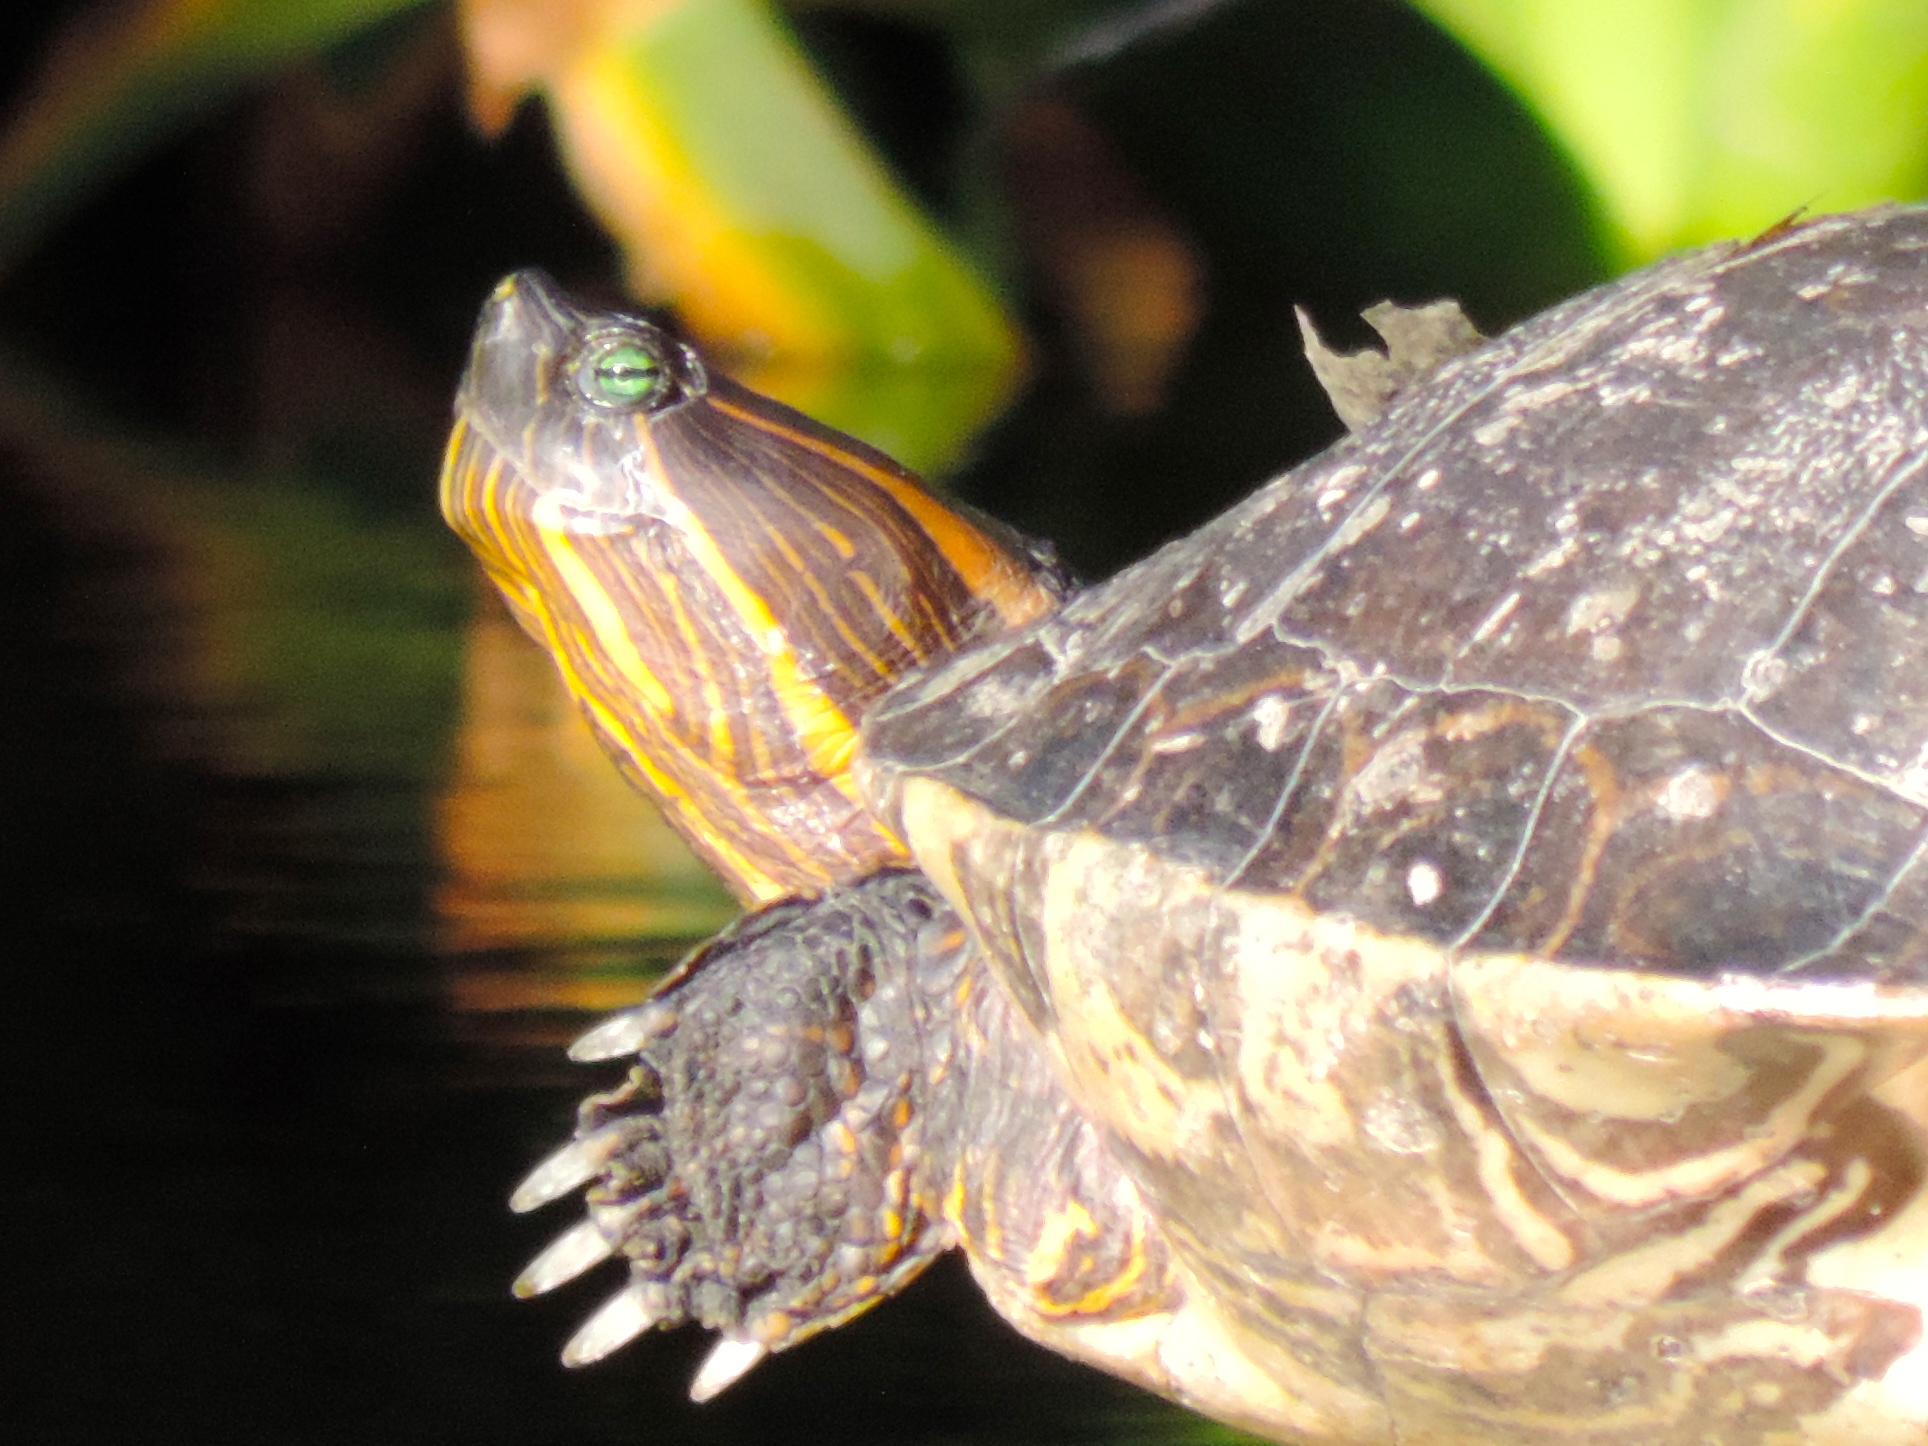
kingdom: Animalia
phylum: Chordata
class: Testudines
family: Emydidae
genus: Trachemys
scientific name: Trachemys ornata
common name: Ornate slider
